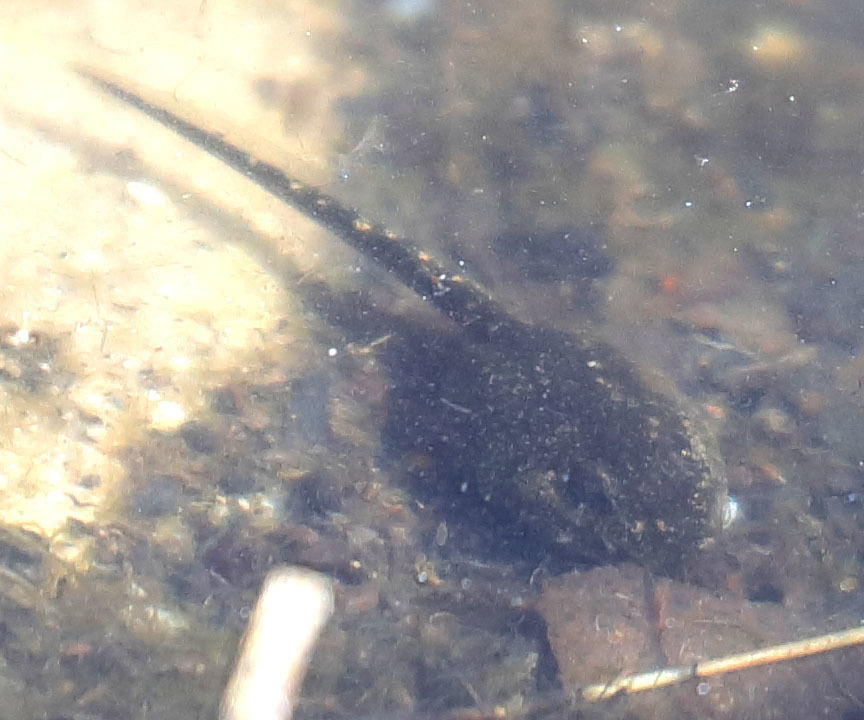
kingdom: Animalia
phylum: Chordata
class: Amphibia
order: Anura
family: Bufonidae
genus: Anaxyrus
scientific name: Anaxyrus boreas
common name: Western toad
